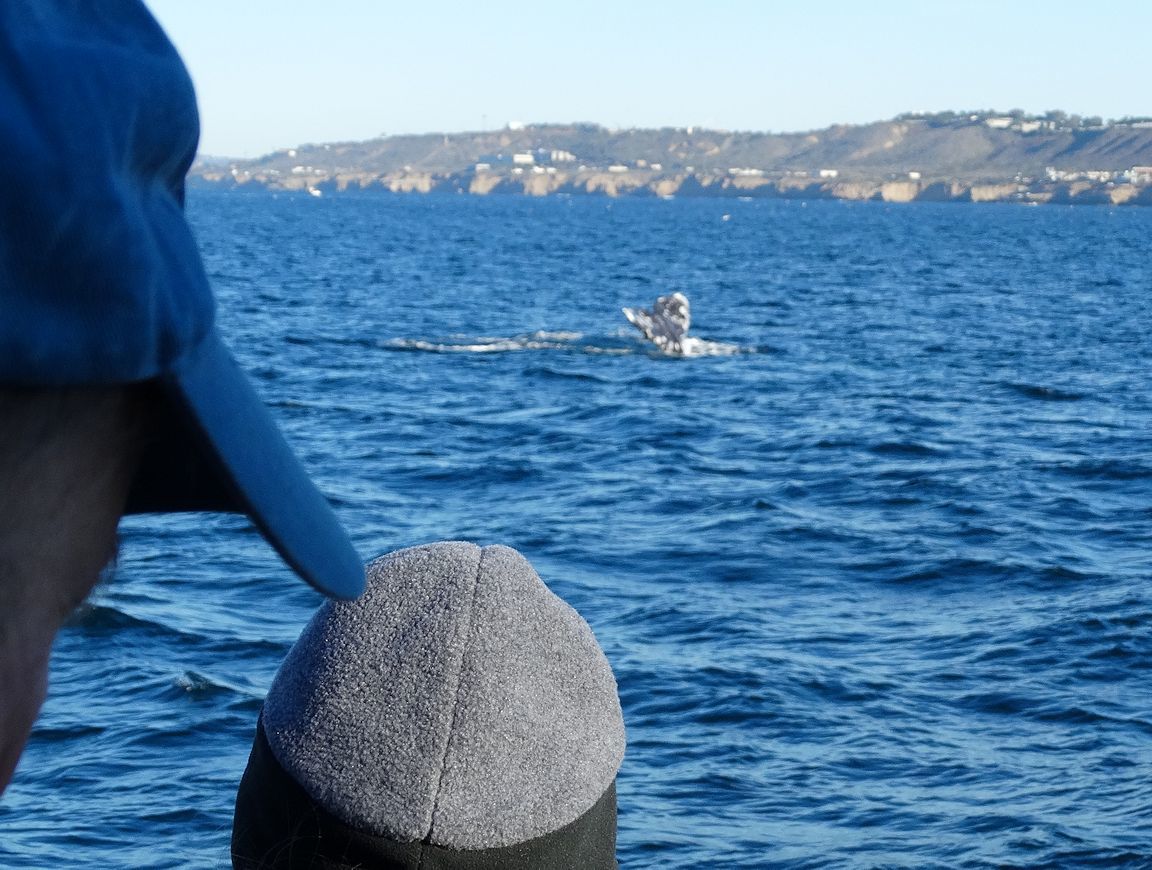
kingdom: Animalia
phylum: Chordata
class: Mammalia
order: Cetacea
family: Eschrichtiidae
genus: Eschrichtius
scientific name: Eschrichtius robustus
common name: Gray whale
